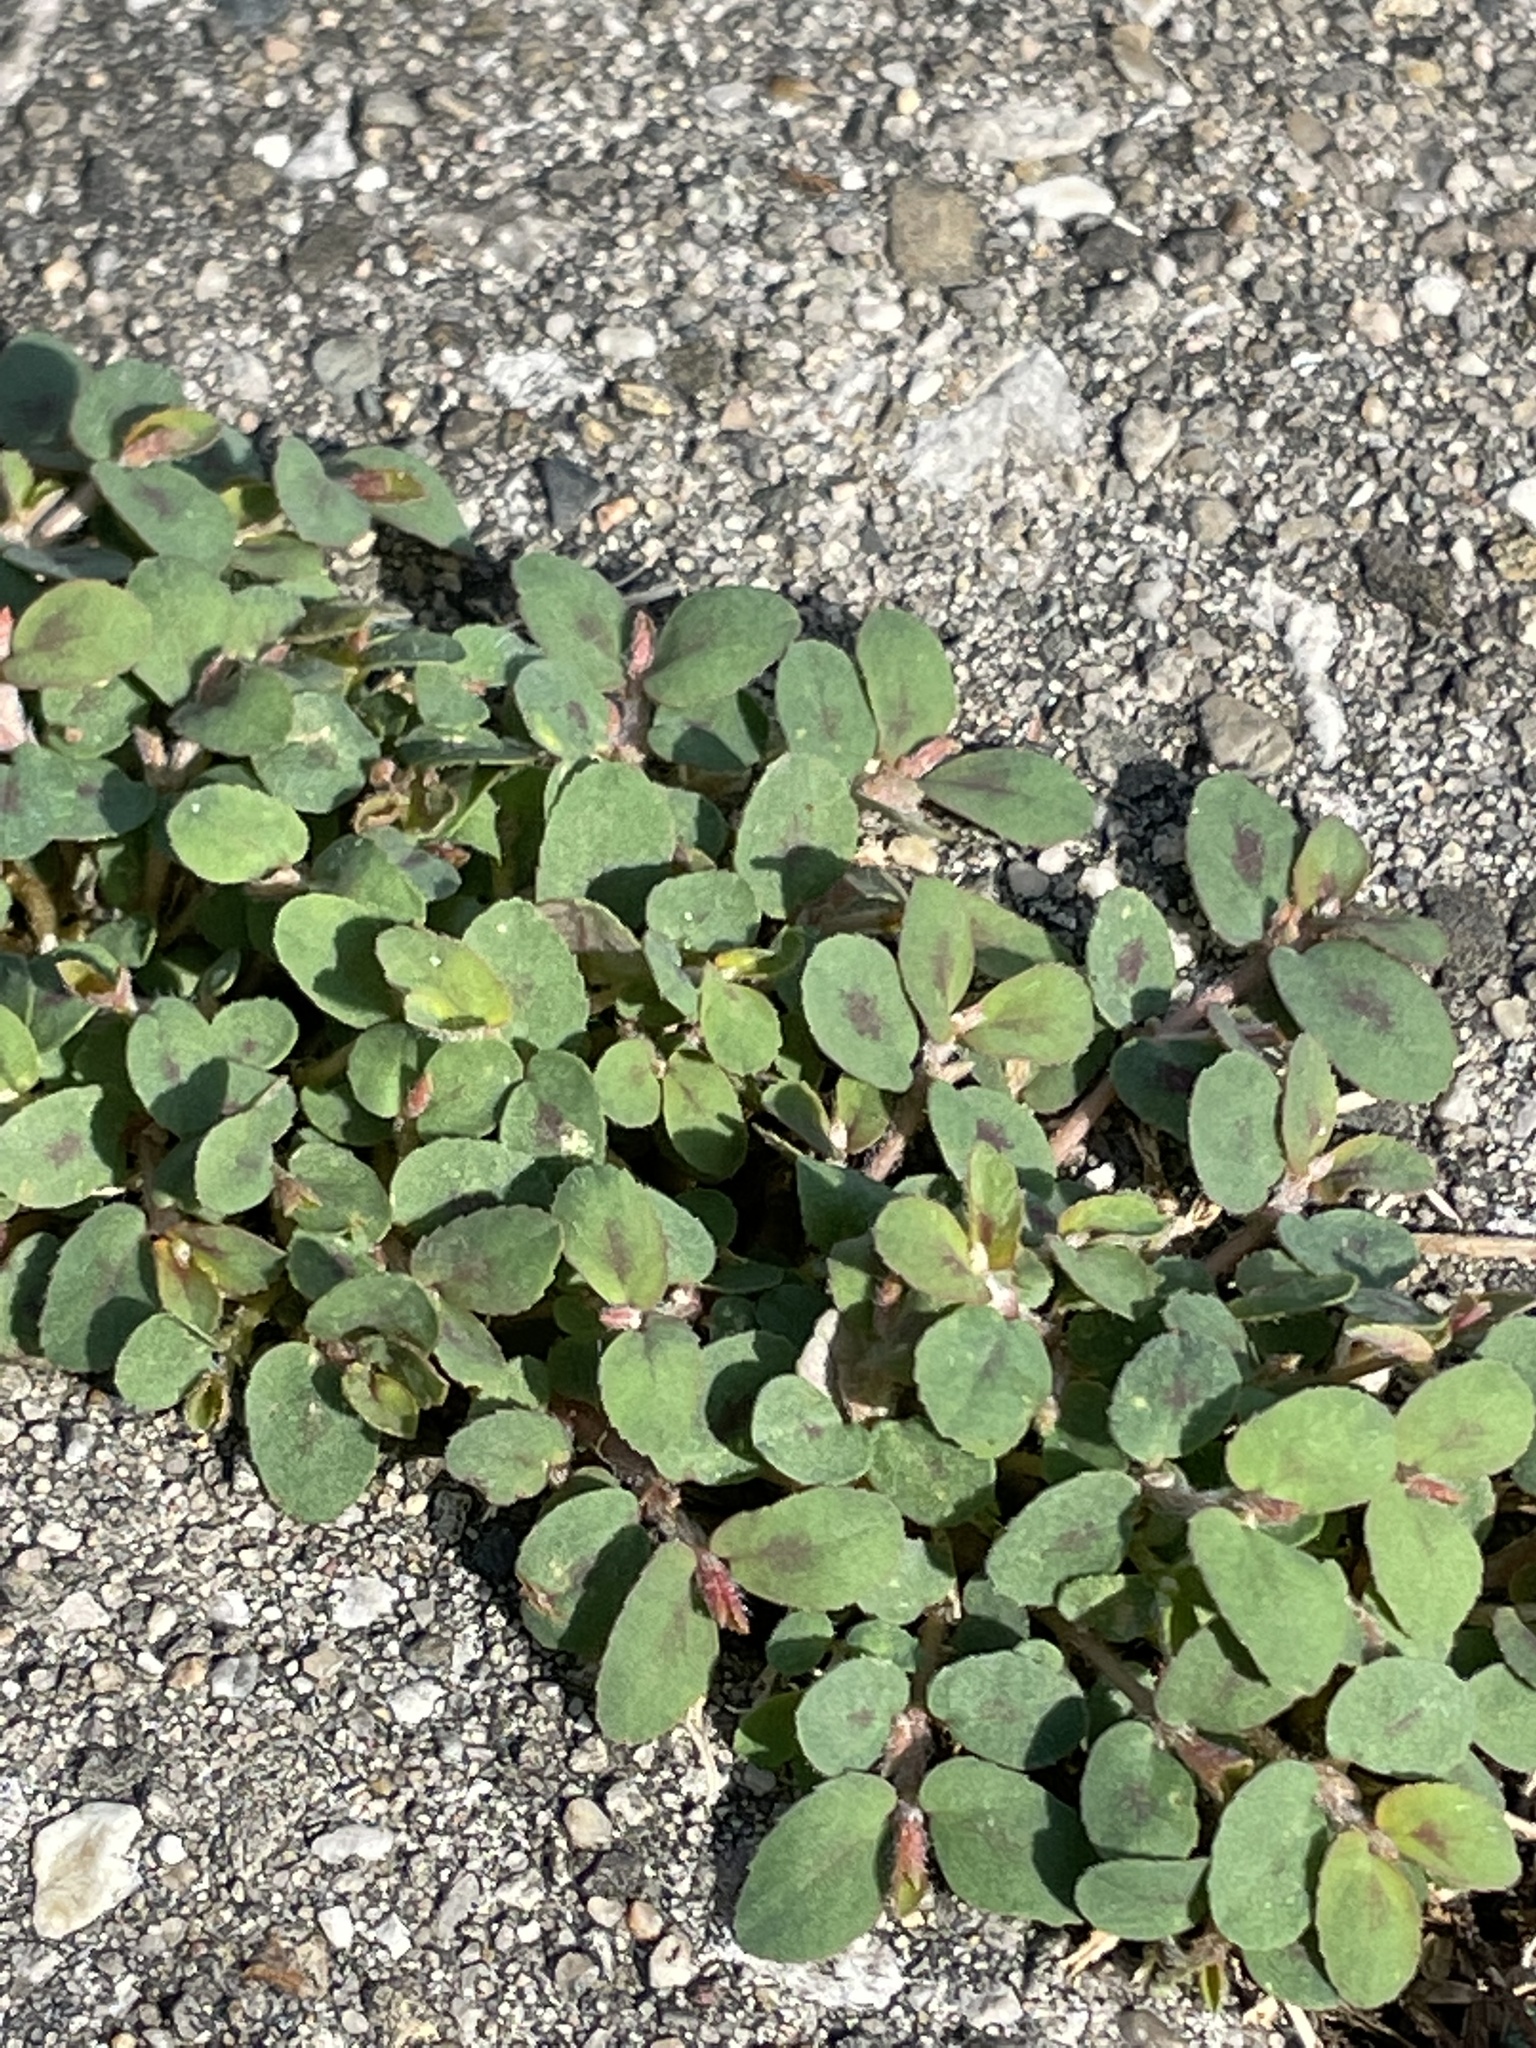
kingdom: Plantae
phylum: Tracheophyta
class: Magnoliopsida
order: Malpighiales
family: Euphorbiaceae
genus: Euphorbia
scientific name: Euphorbia maculata
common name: Spotted spurge
